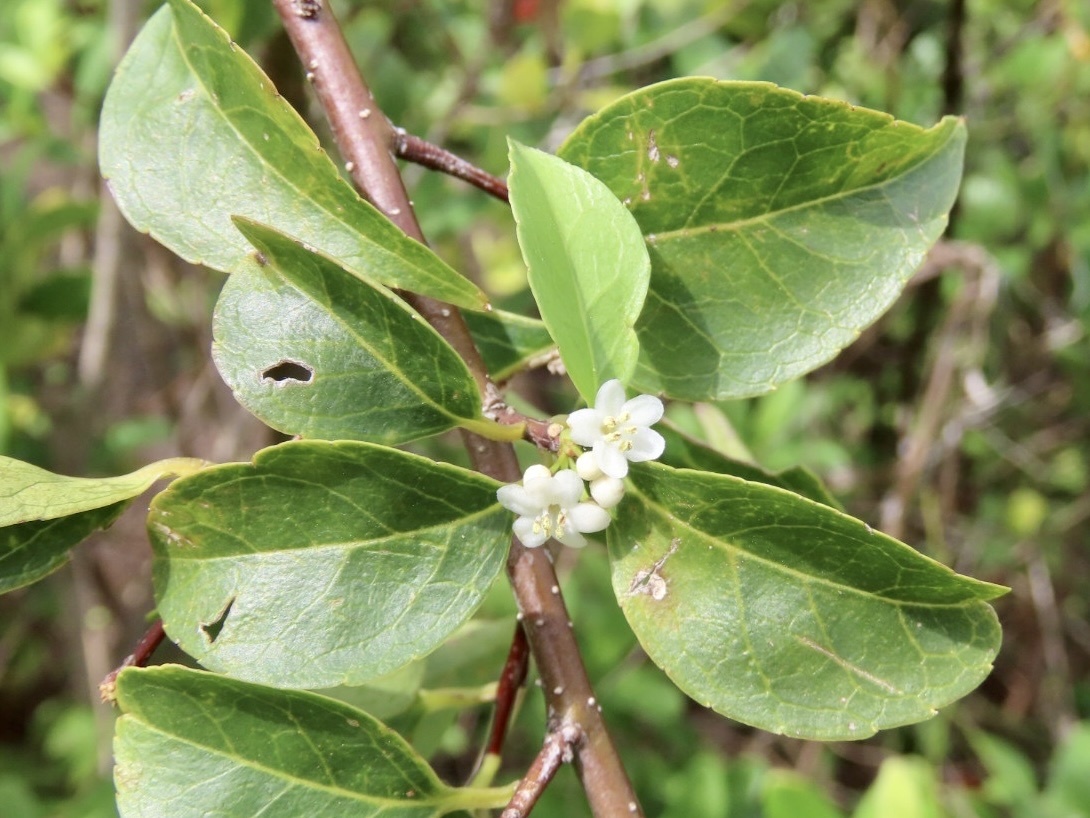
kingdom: Plantae
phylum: Tracheophyta
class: Magnoliopsida
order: Aquifoliales
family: Aquifoliaceae
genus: Ilex
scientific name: Ilex asprella
